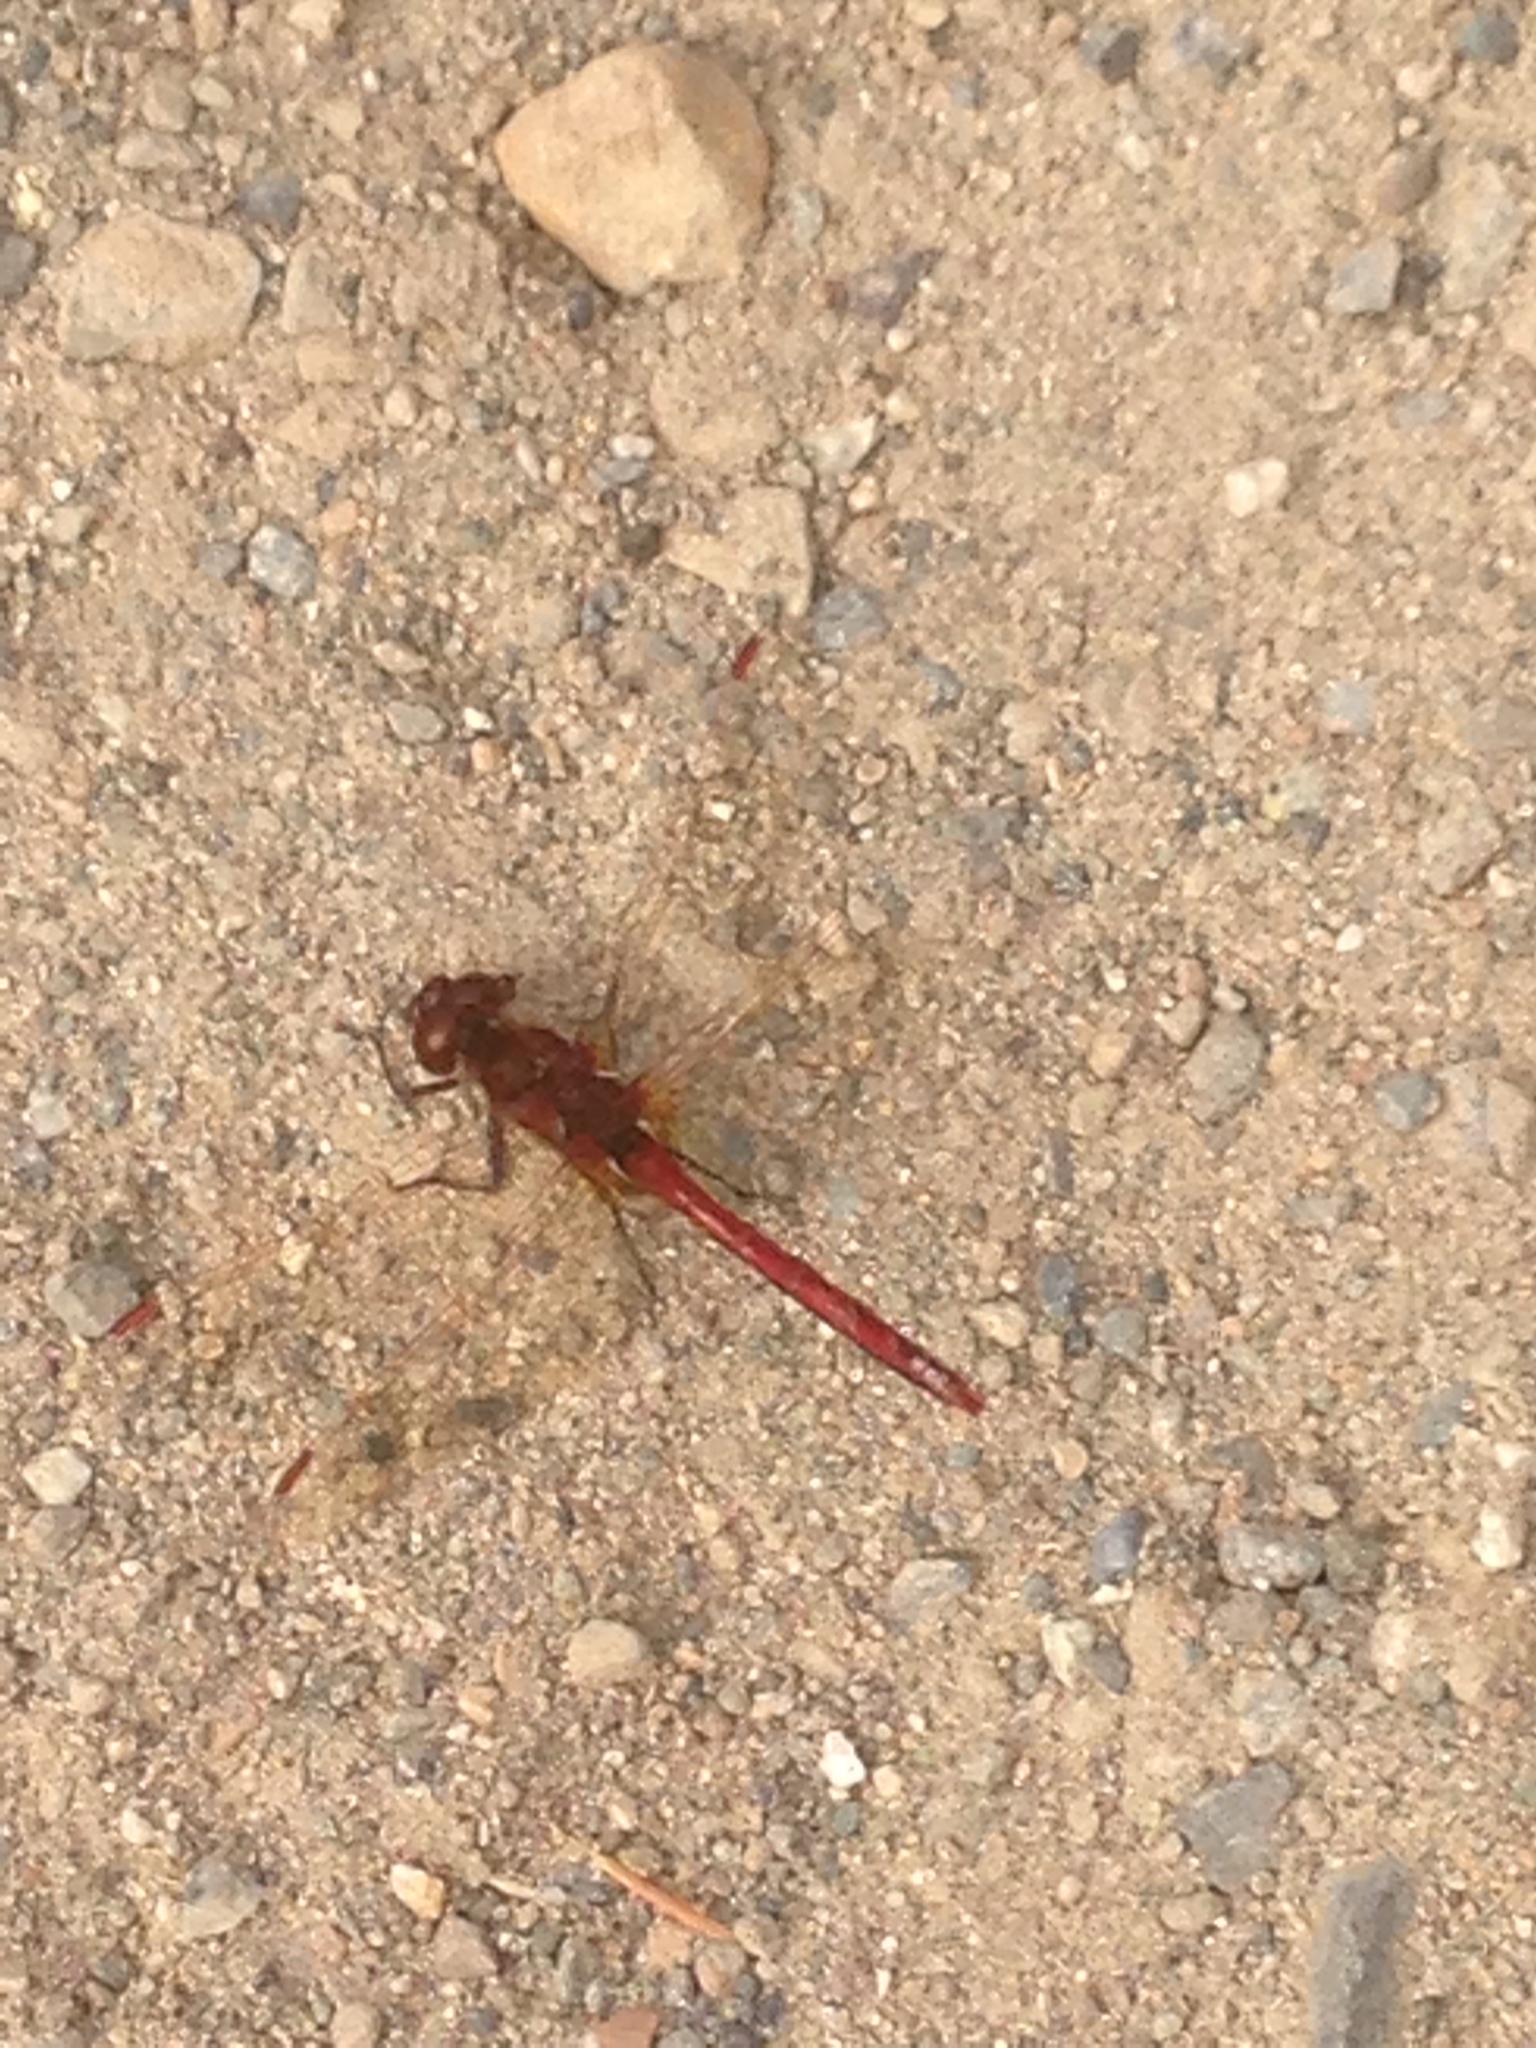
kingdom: Animalia
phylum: Arthropoda
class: Insecta
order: Odonata
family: Libellulidae
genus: Sympetrum
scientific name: Sympetrum
